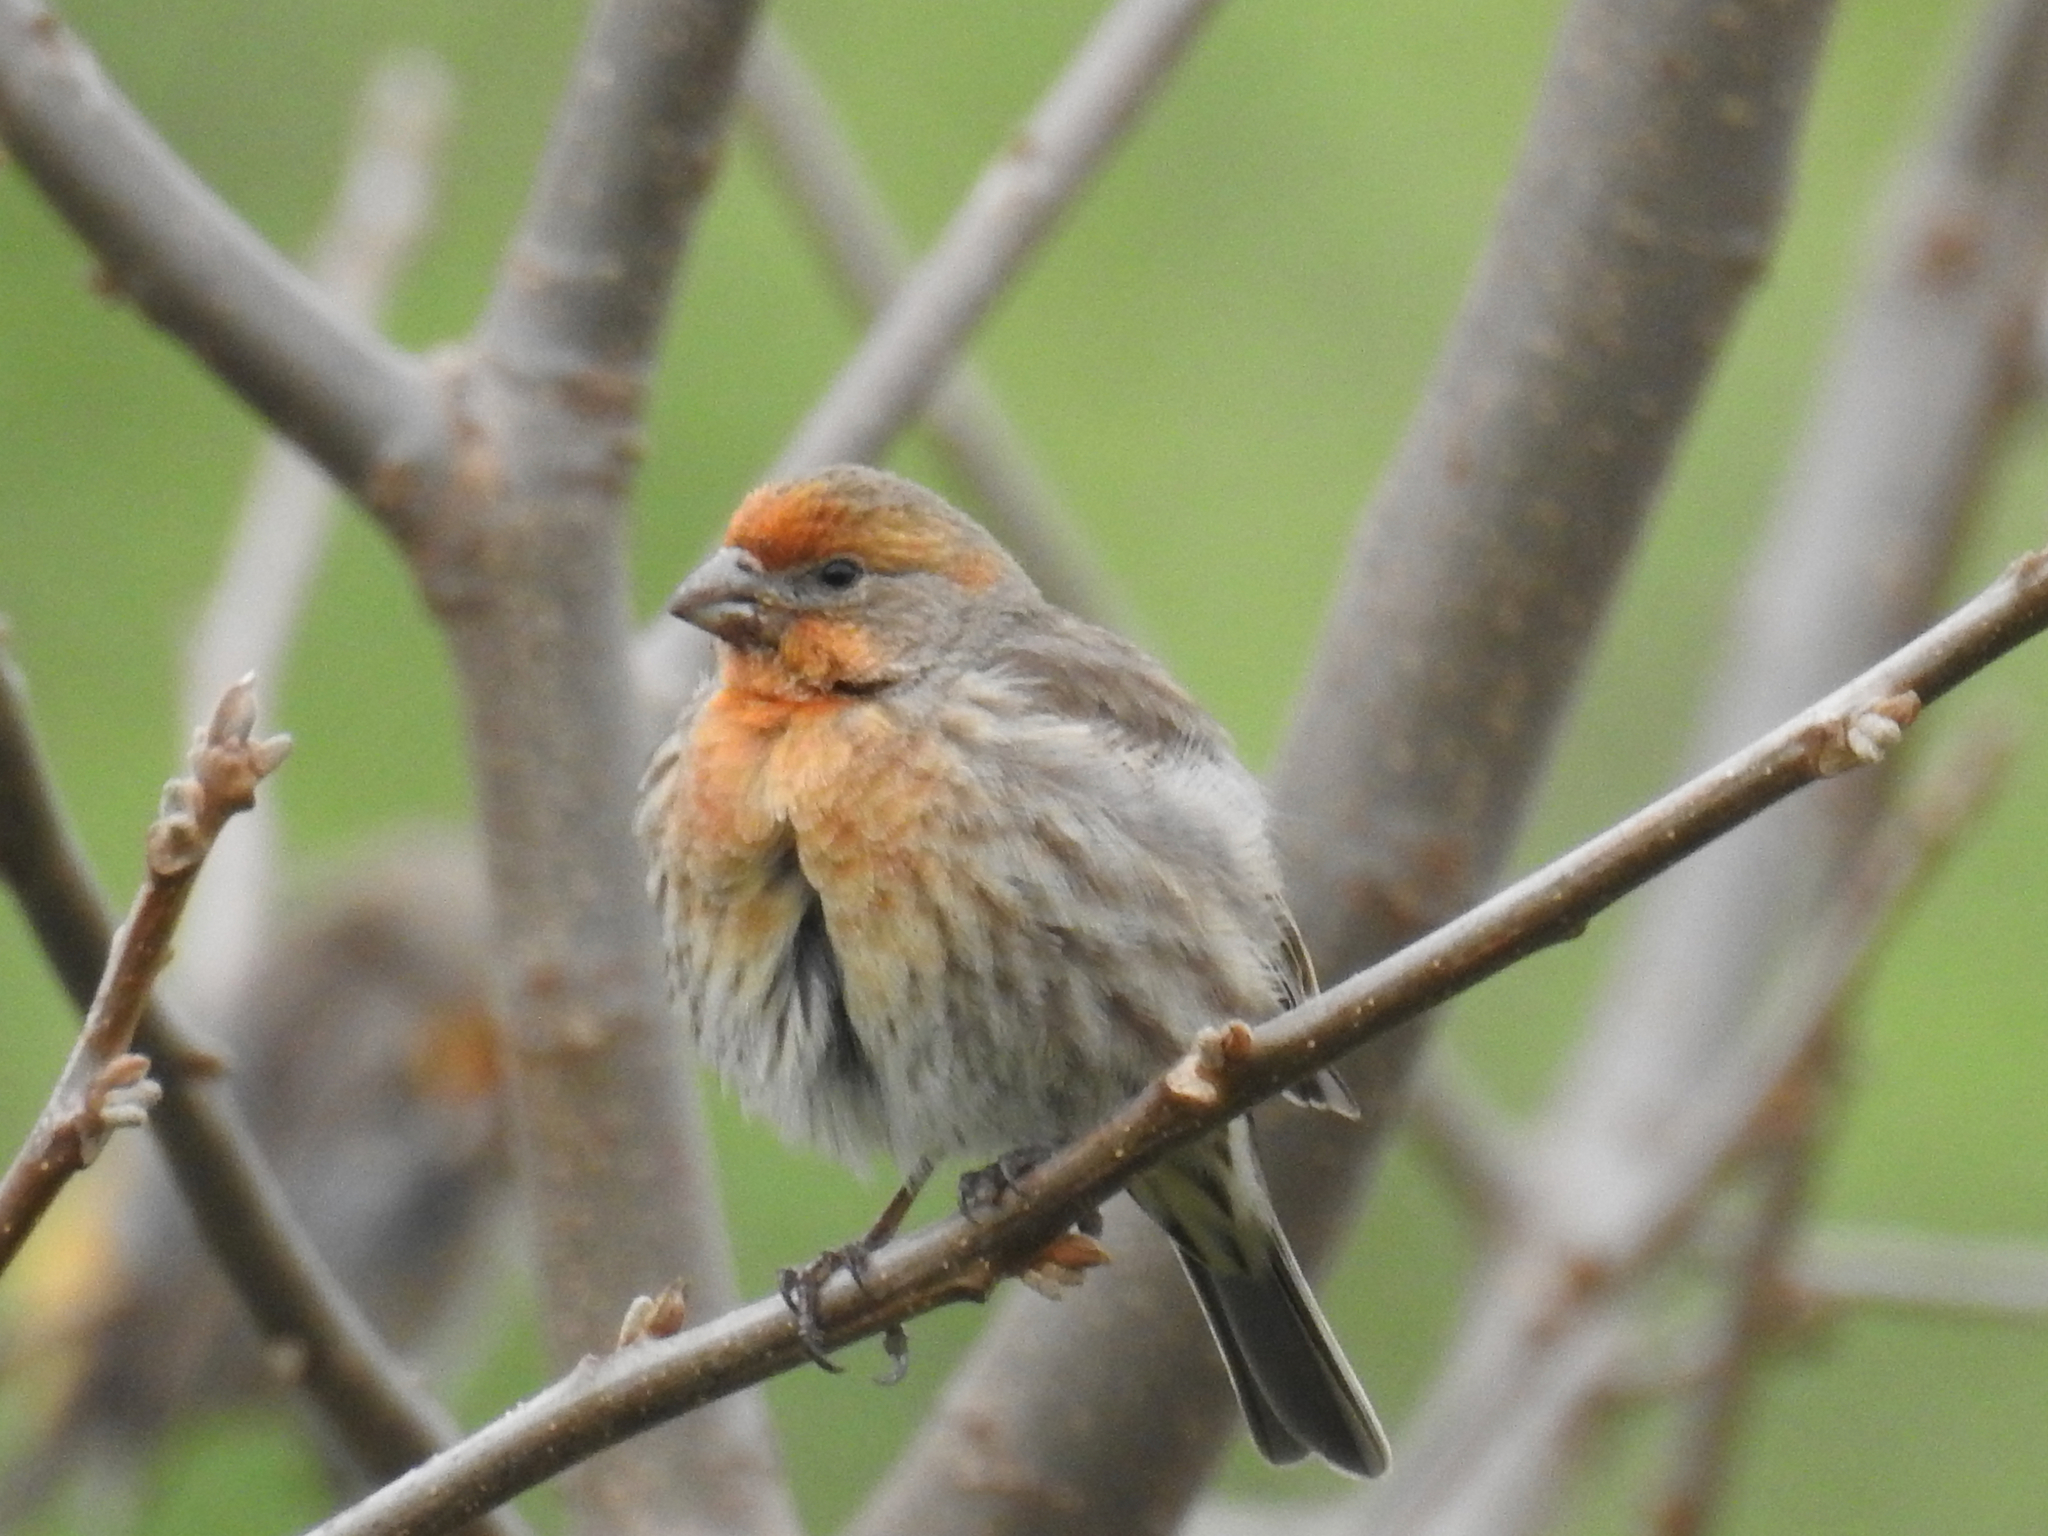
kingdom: Animalia
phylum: Chordata
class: Aves
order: Passeriformes
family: Fringillidae
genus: Haemorhous
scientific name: Haemorhous mexicanus
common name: House finch
